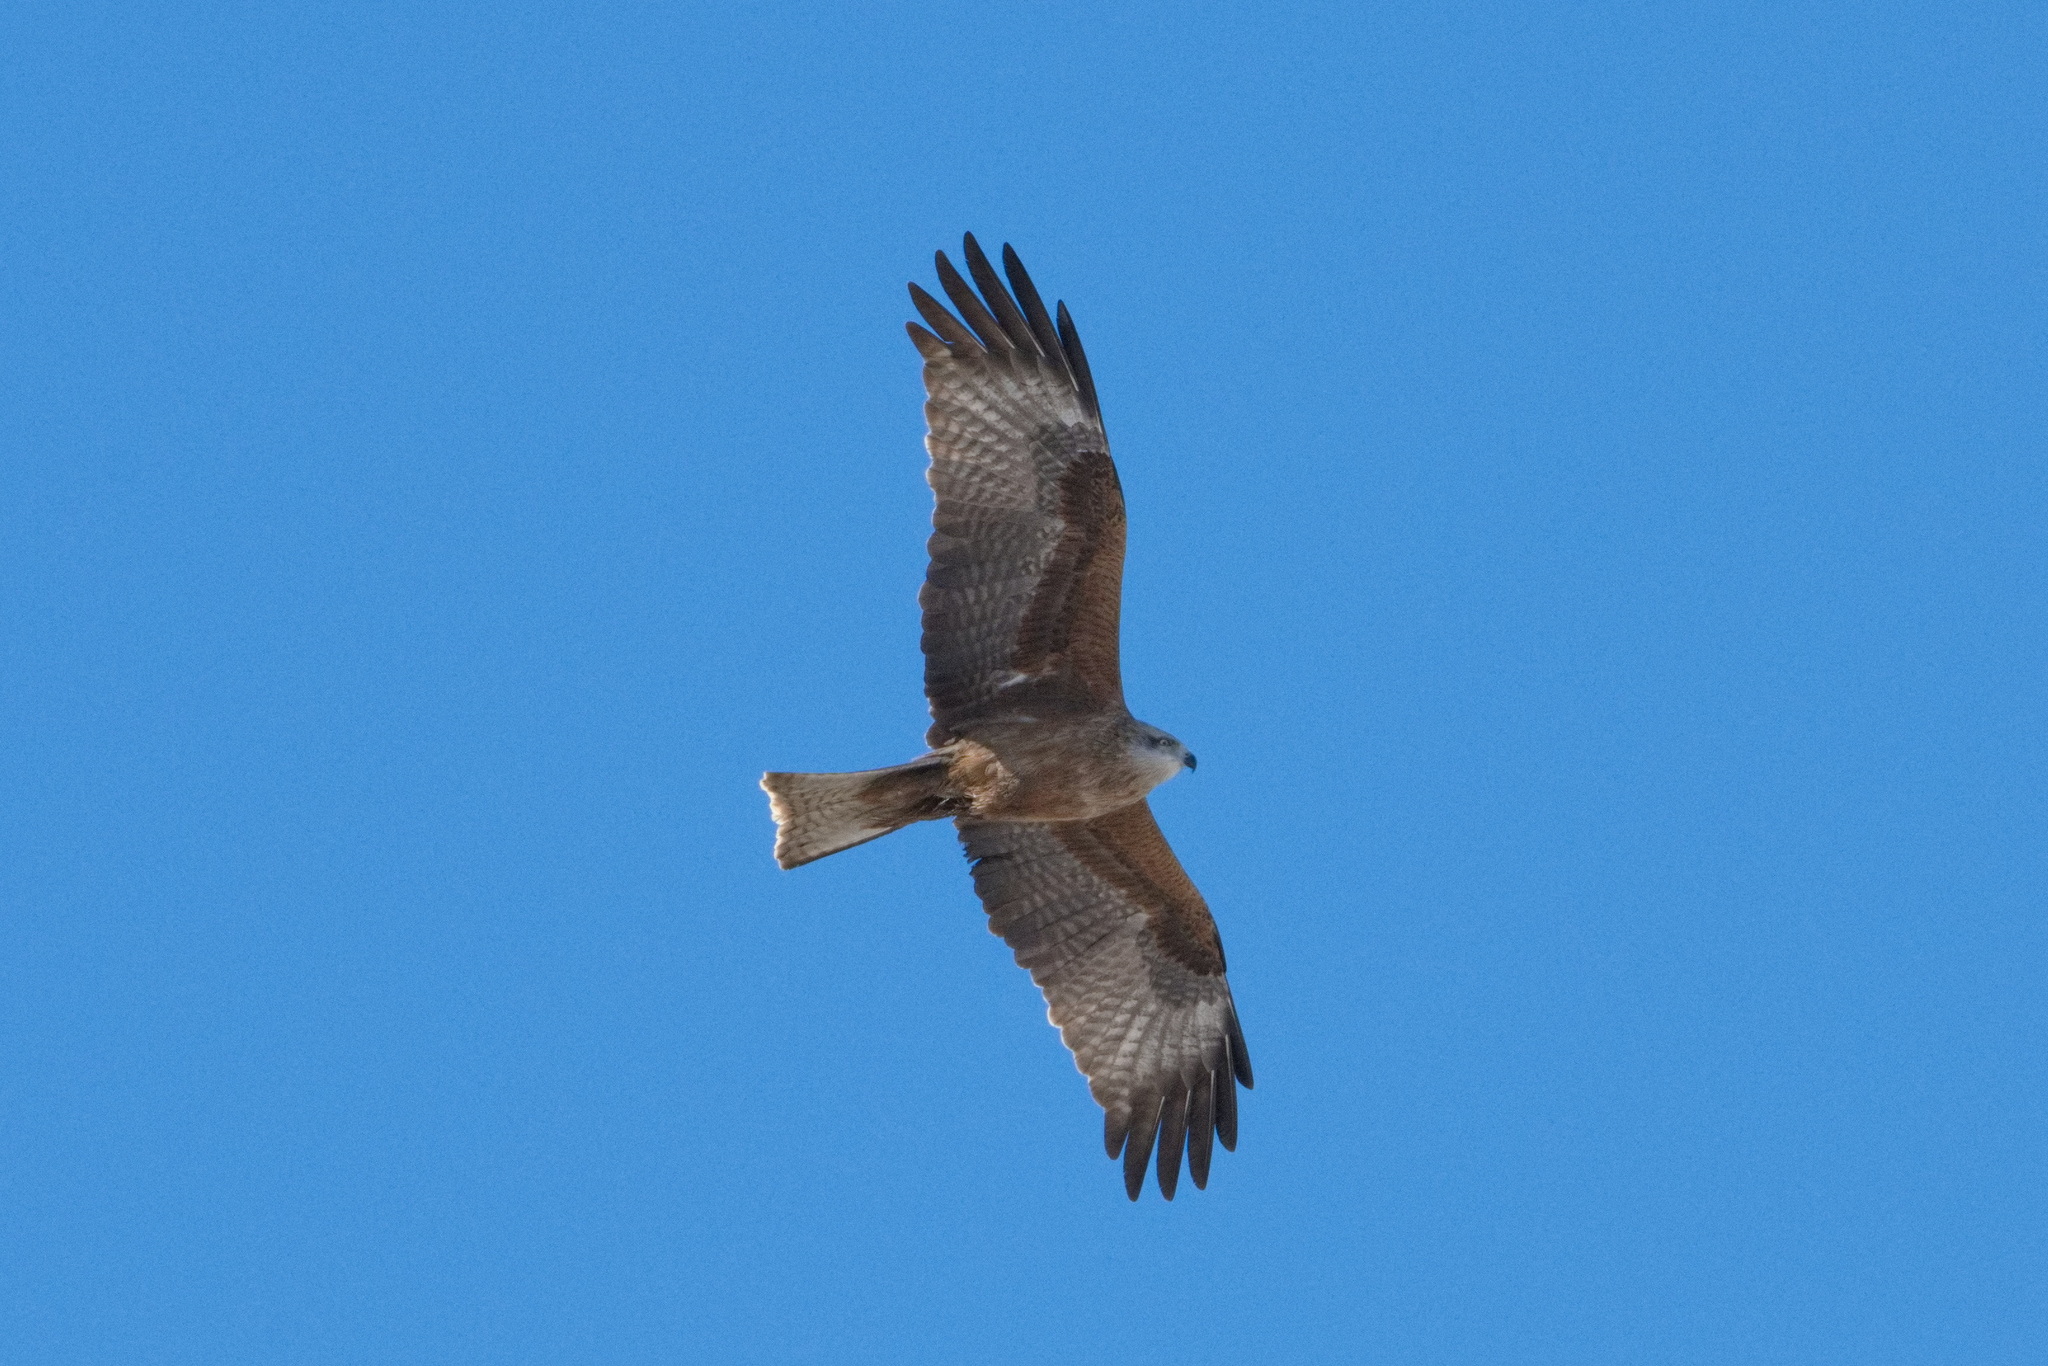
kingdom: Animalia
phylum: Chordata
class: Aves
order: Accipitriformes
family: Accipitridae
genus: Milvus
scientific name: Milvus migrans
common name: Black kite
